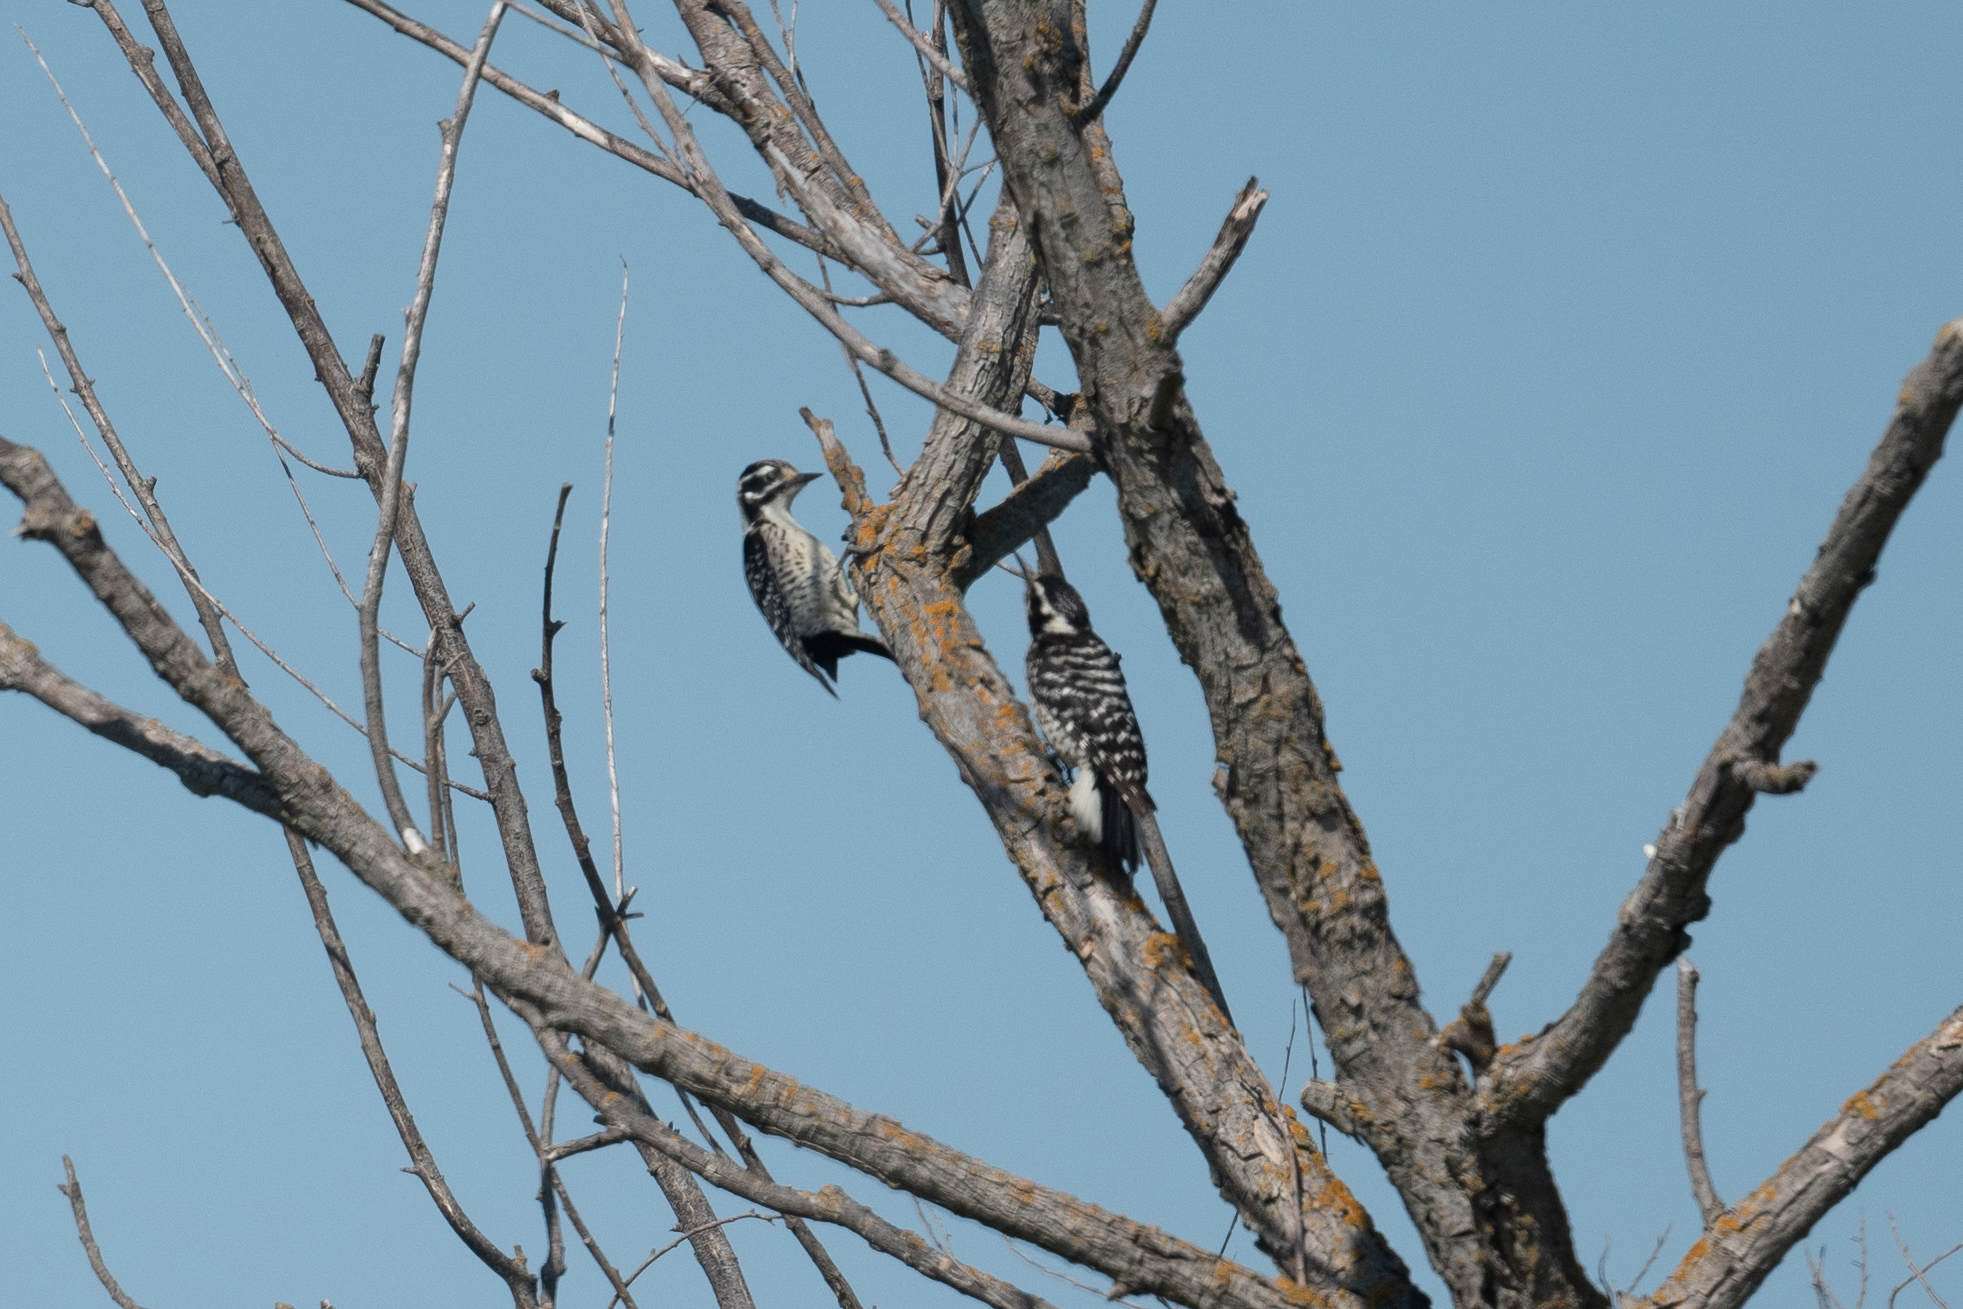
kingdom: Animalia
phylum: Chordata
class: Aves
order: Piciformes
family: Picidae
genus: Dryobates
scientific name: Dryobates nuttallii
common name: Nuttall's woodpecker
